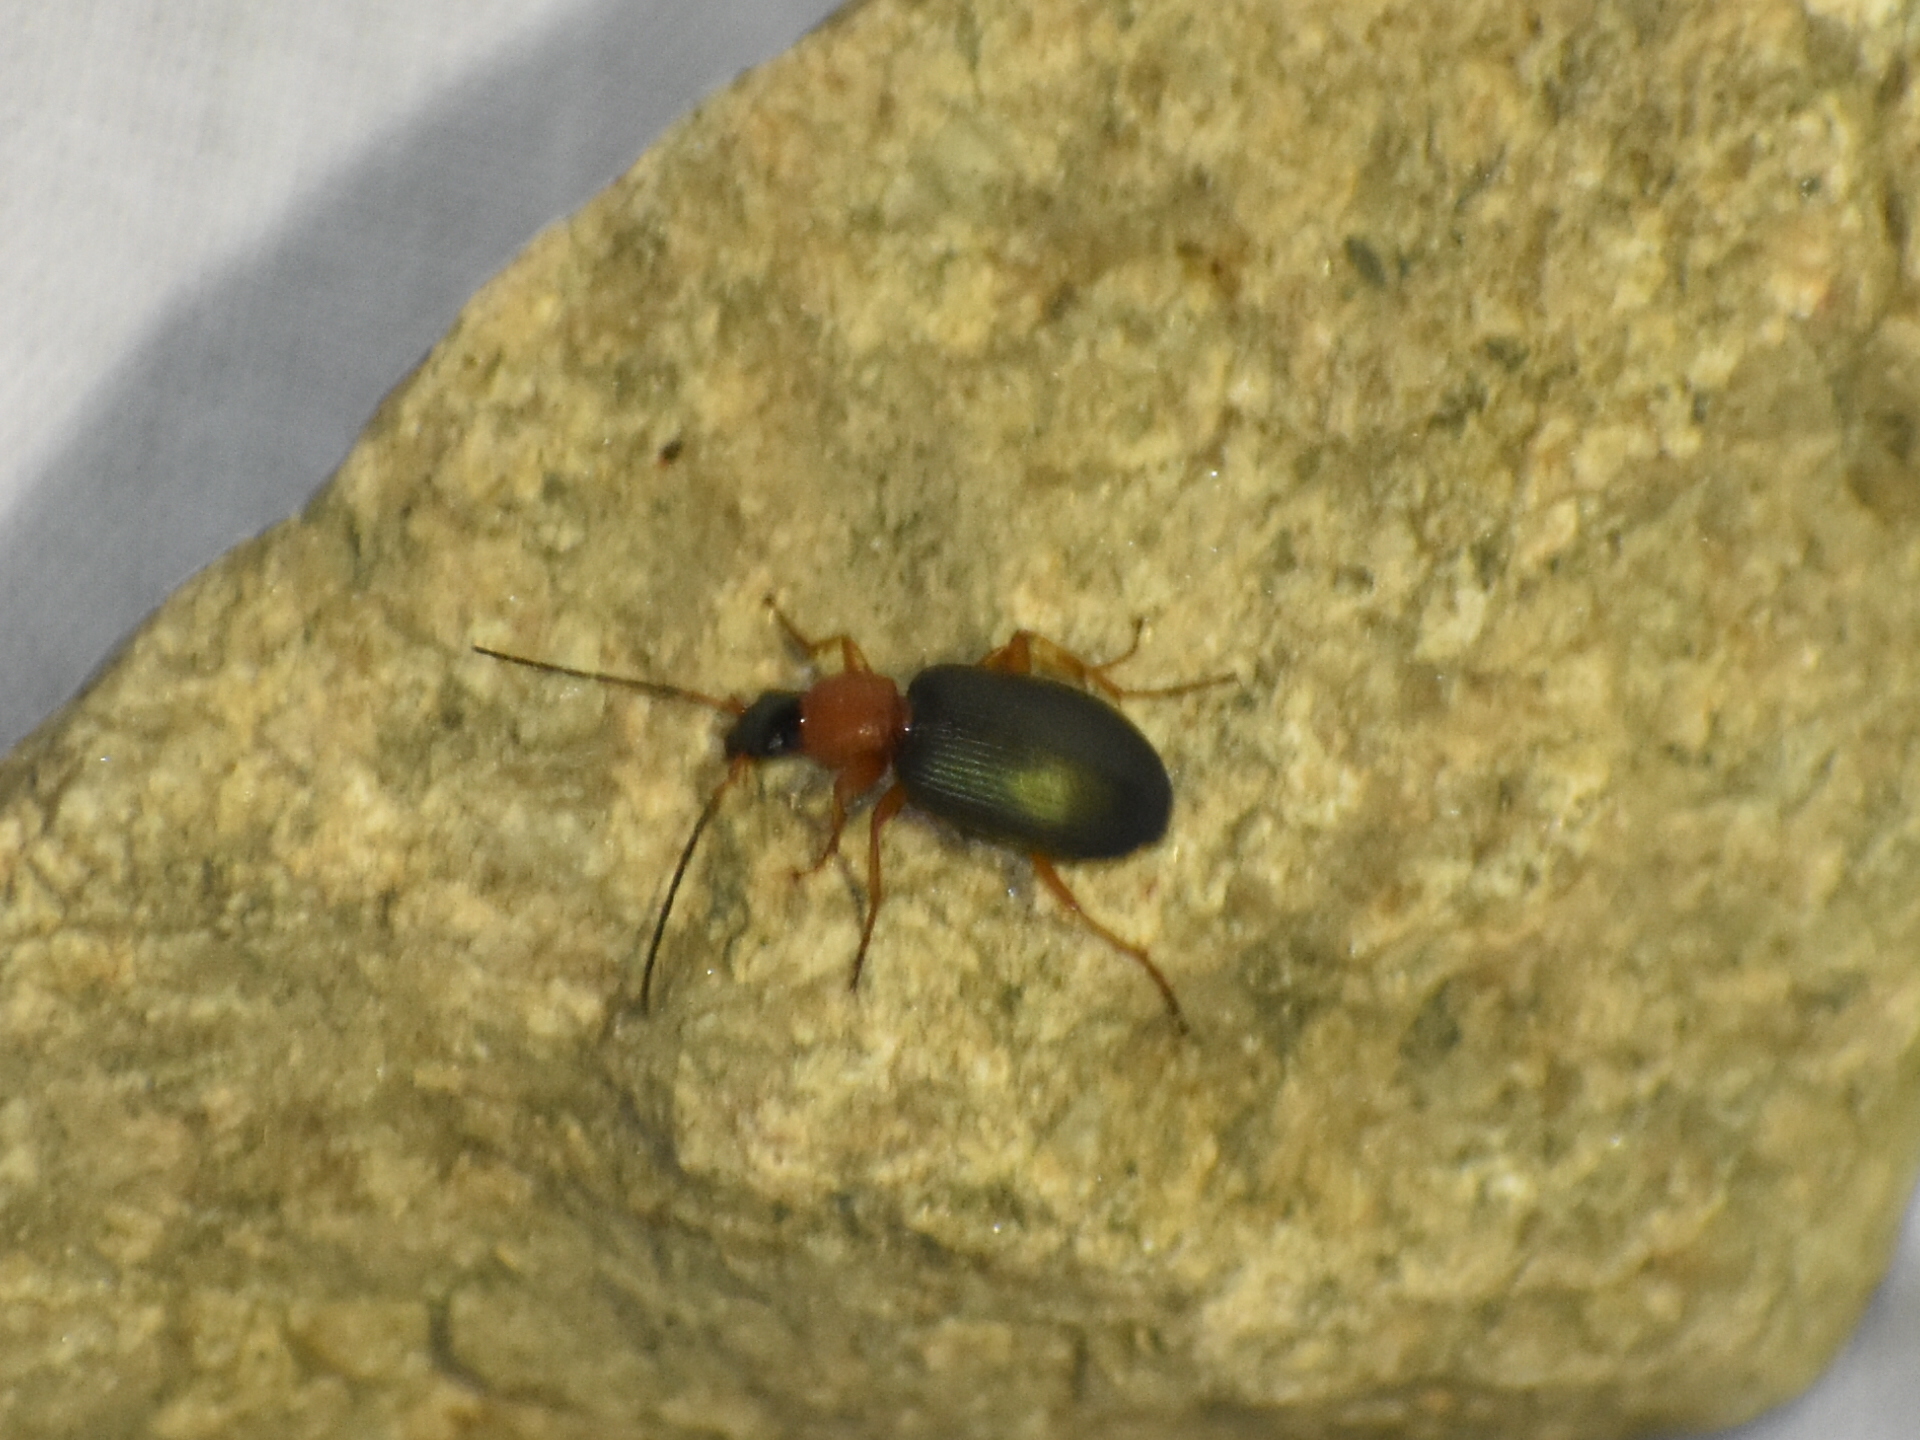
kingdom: Animalia
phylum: Arthropoda
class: Insecta
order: Coleoptera
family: Carabidae
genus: Agonum
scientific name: Agonum decorum
